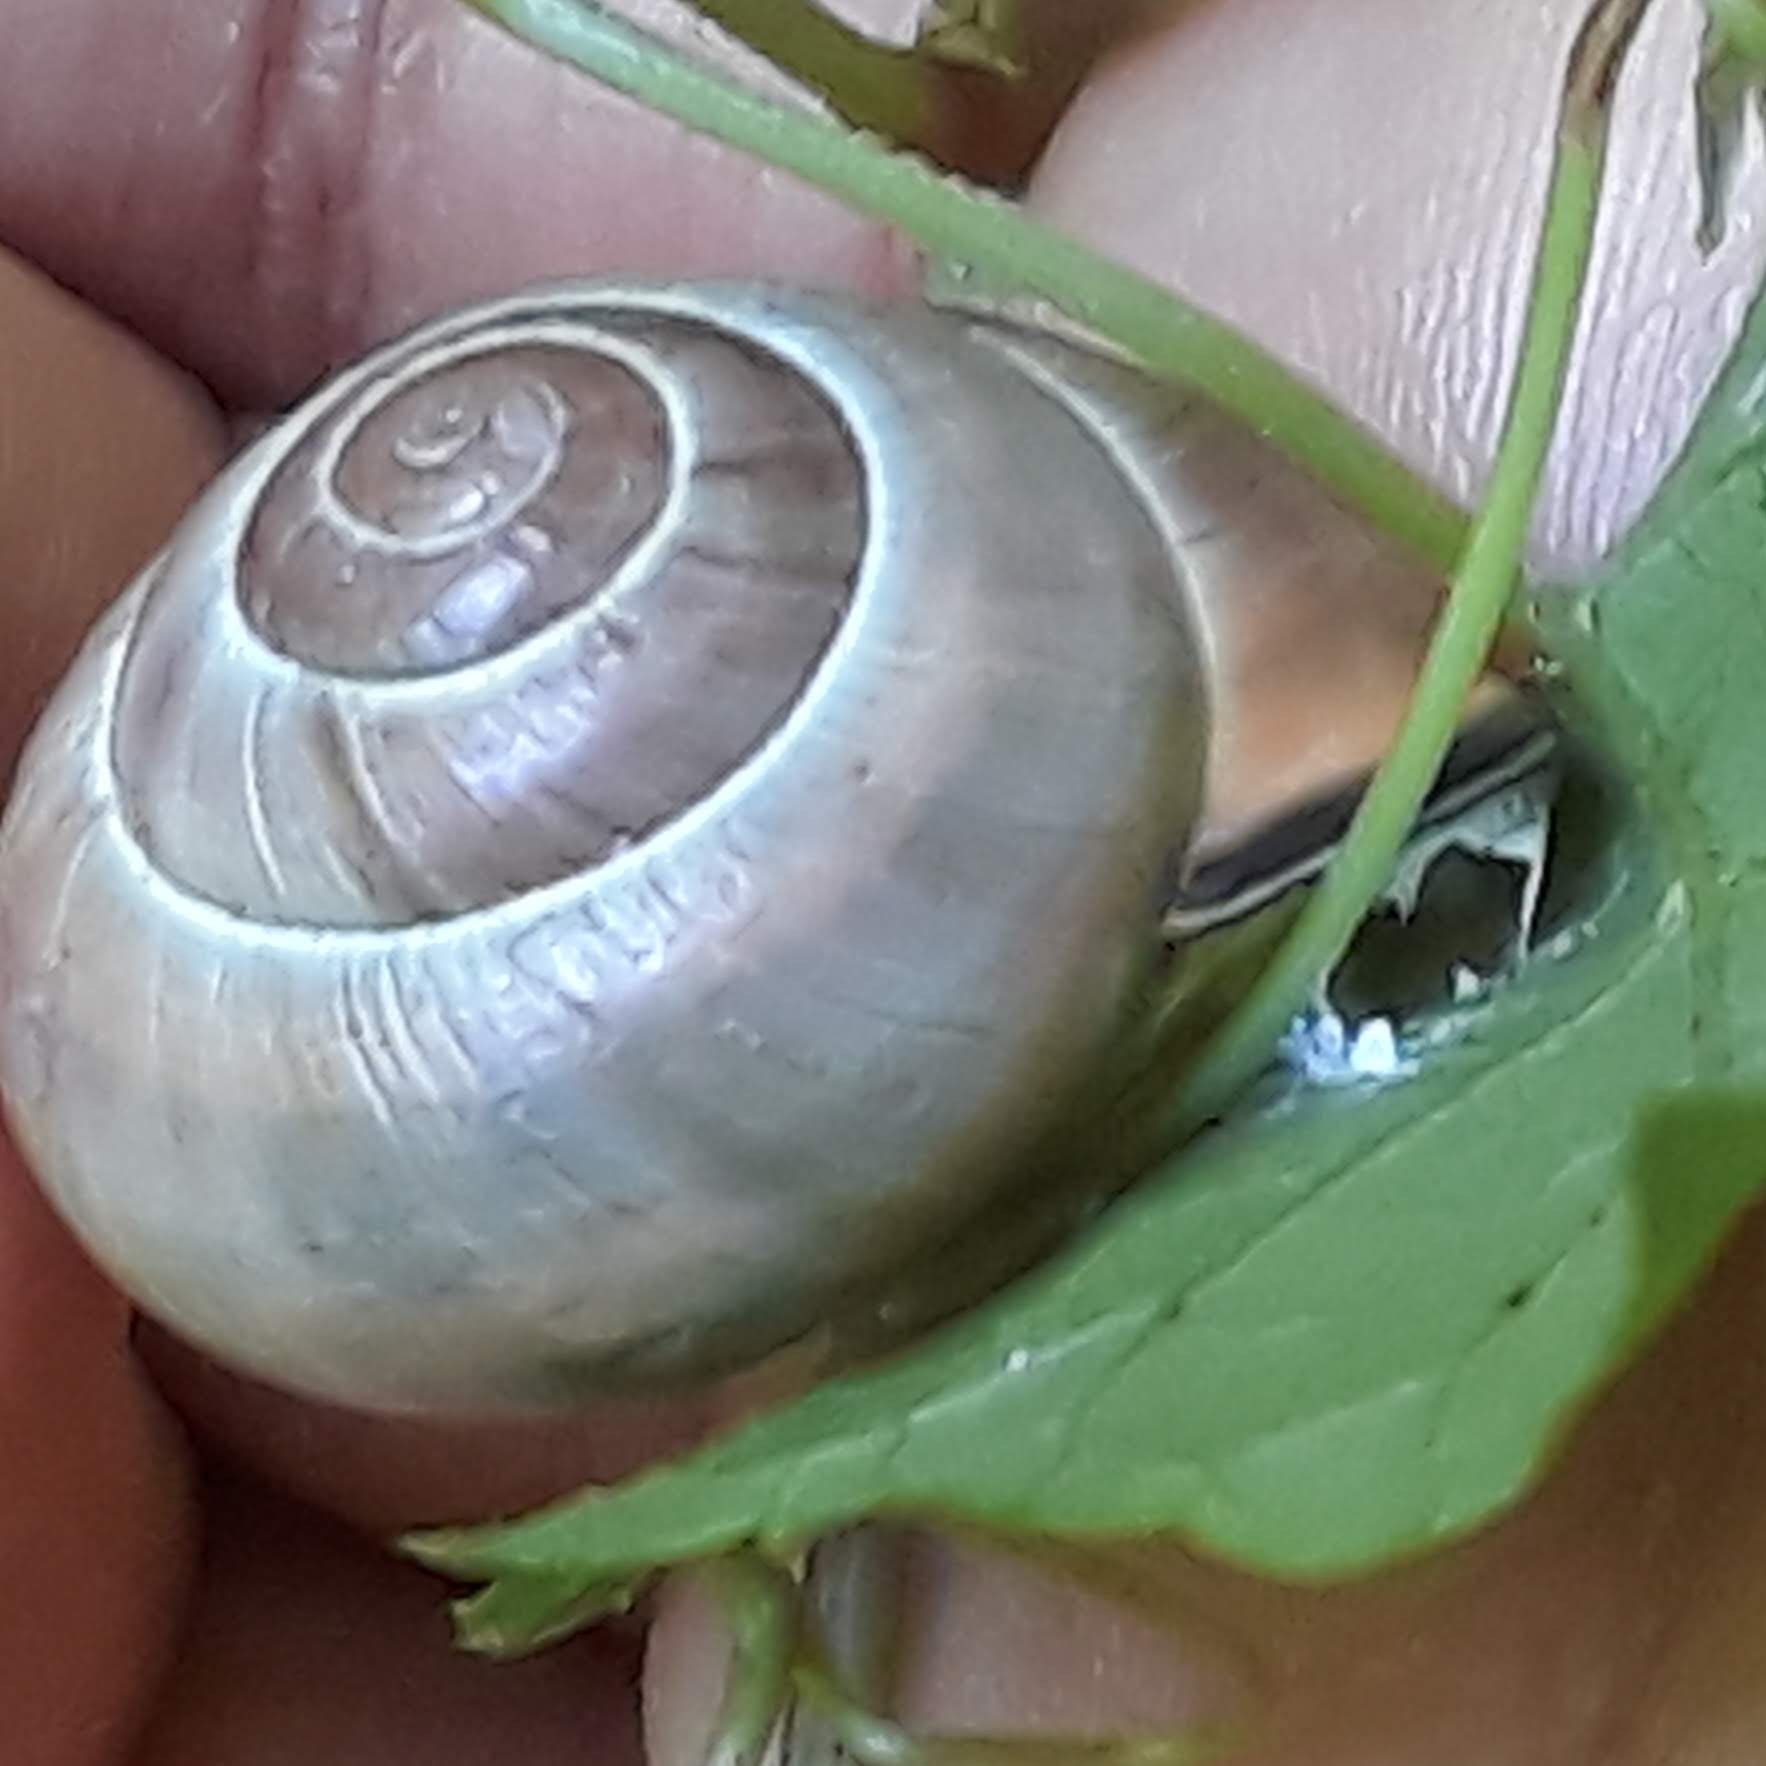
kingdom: Animalia
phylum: Mollusca
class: Gastropoda
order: Stylommatophora
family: Helicidae
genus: Cepaea
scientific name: Cepaea nemoralis
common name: Grovesnail
